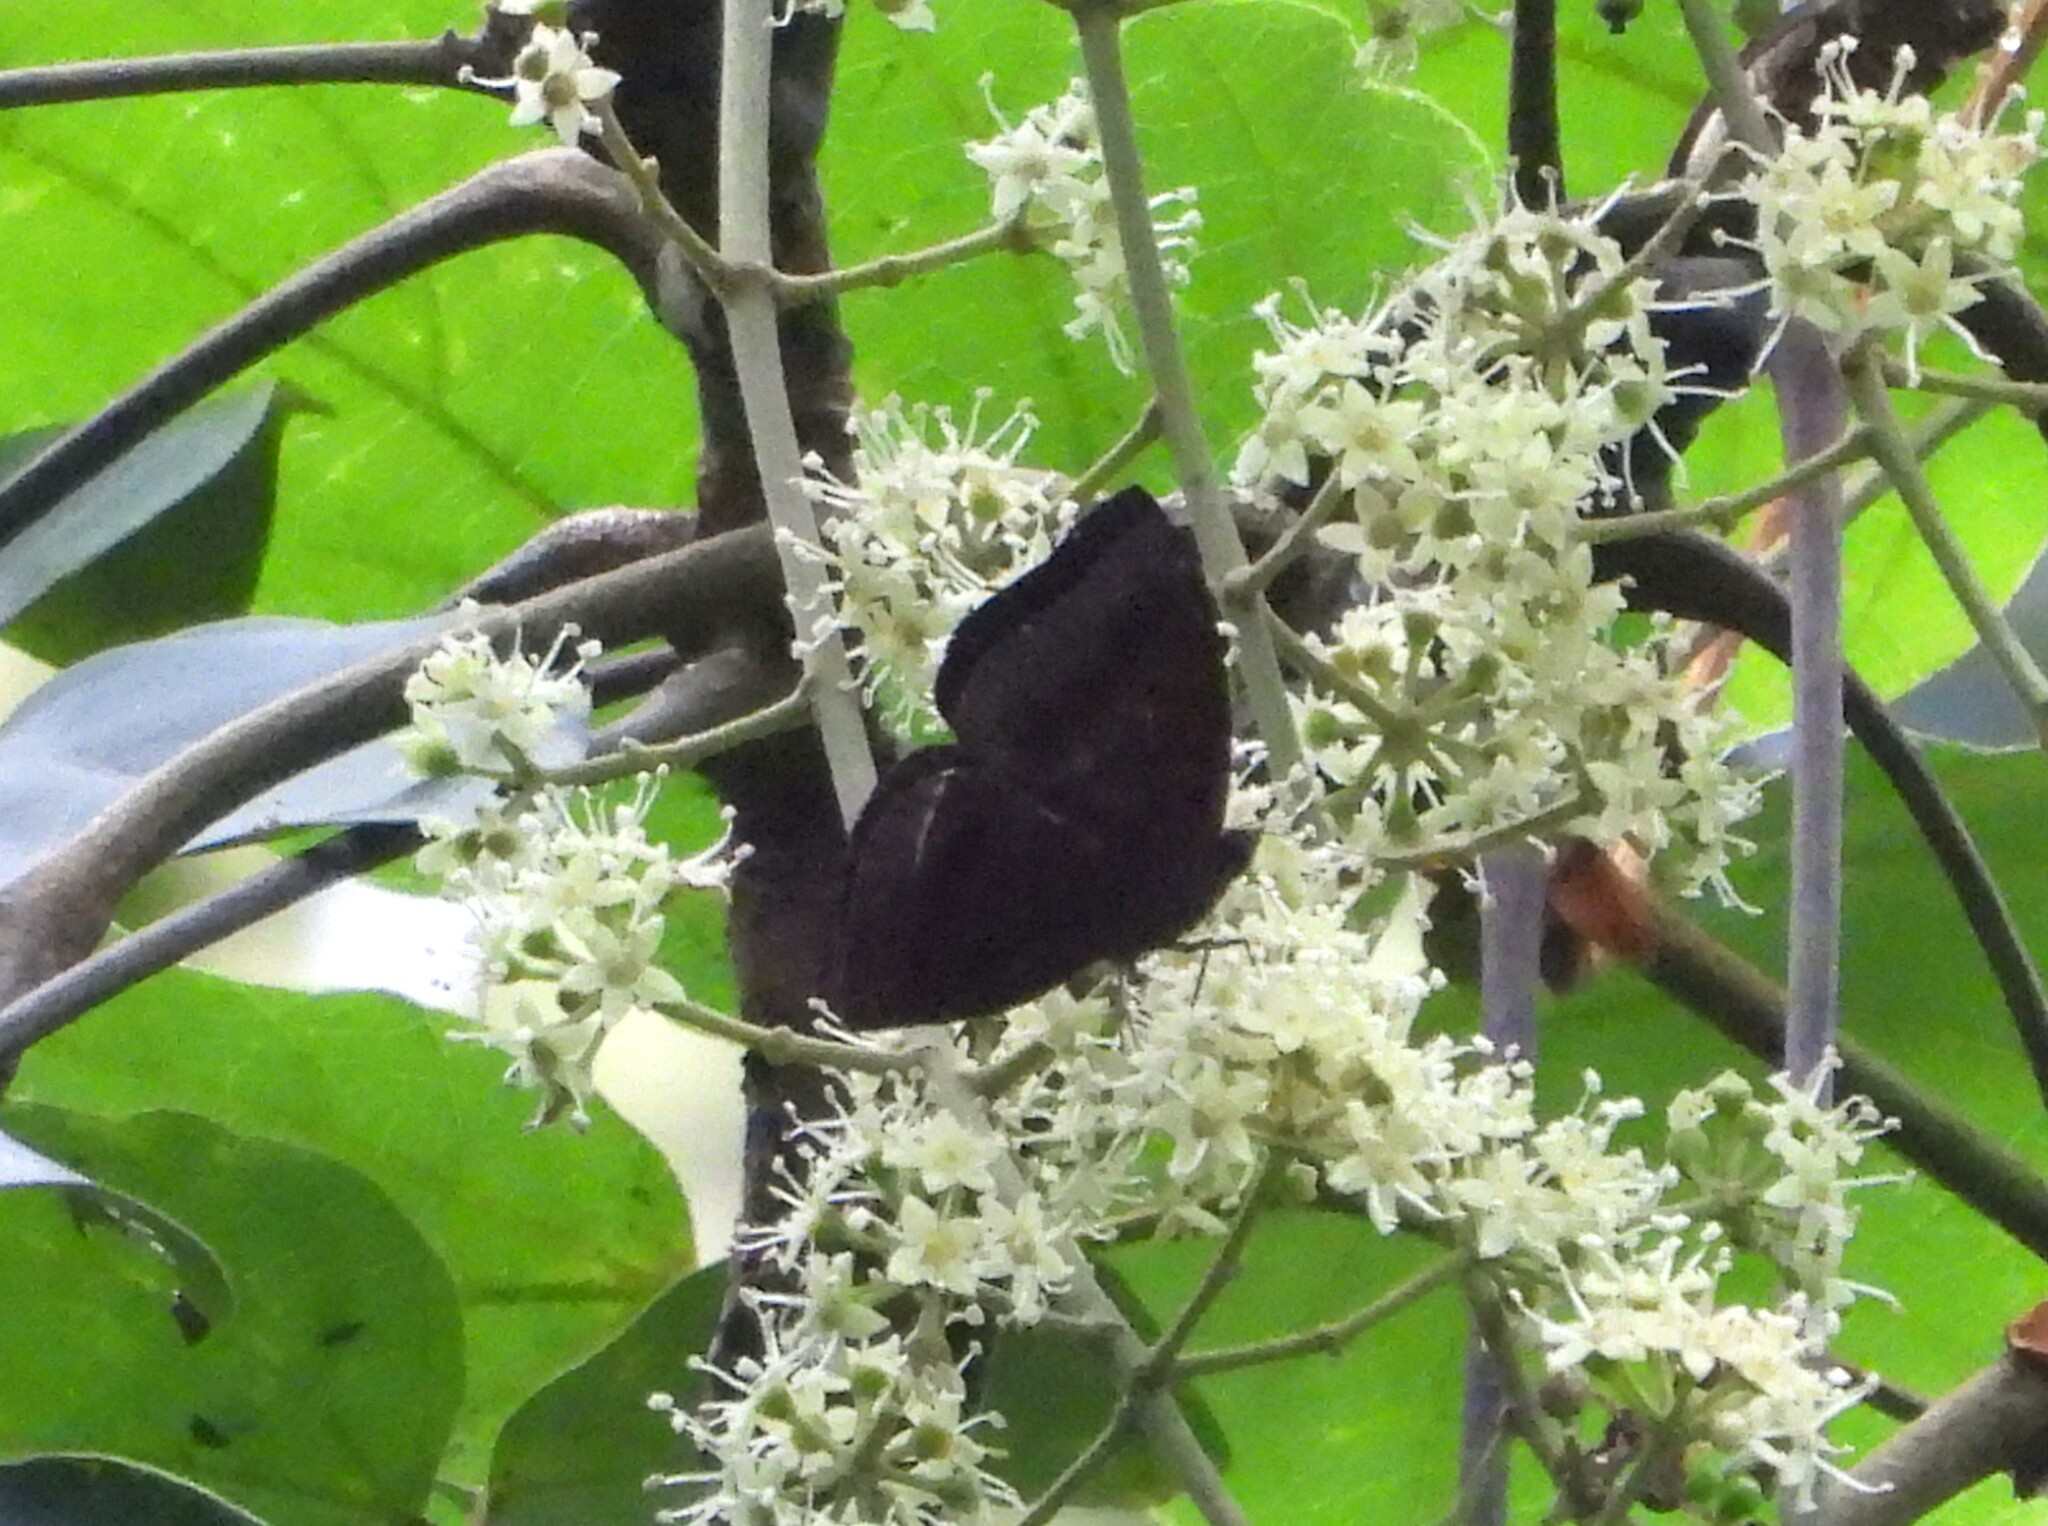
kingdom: Animalia
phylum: Arthropoda
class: Insecta
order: Lepidoptera
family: Nymphalidae
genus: Apatura
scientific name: Apatura Rohana spec
